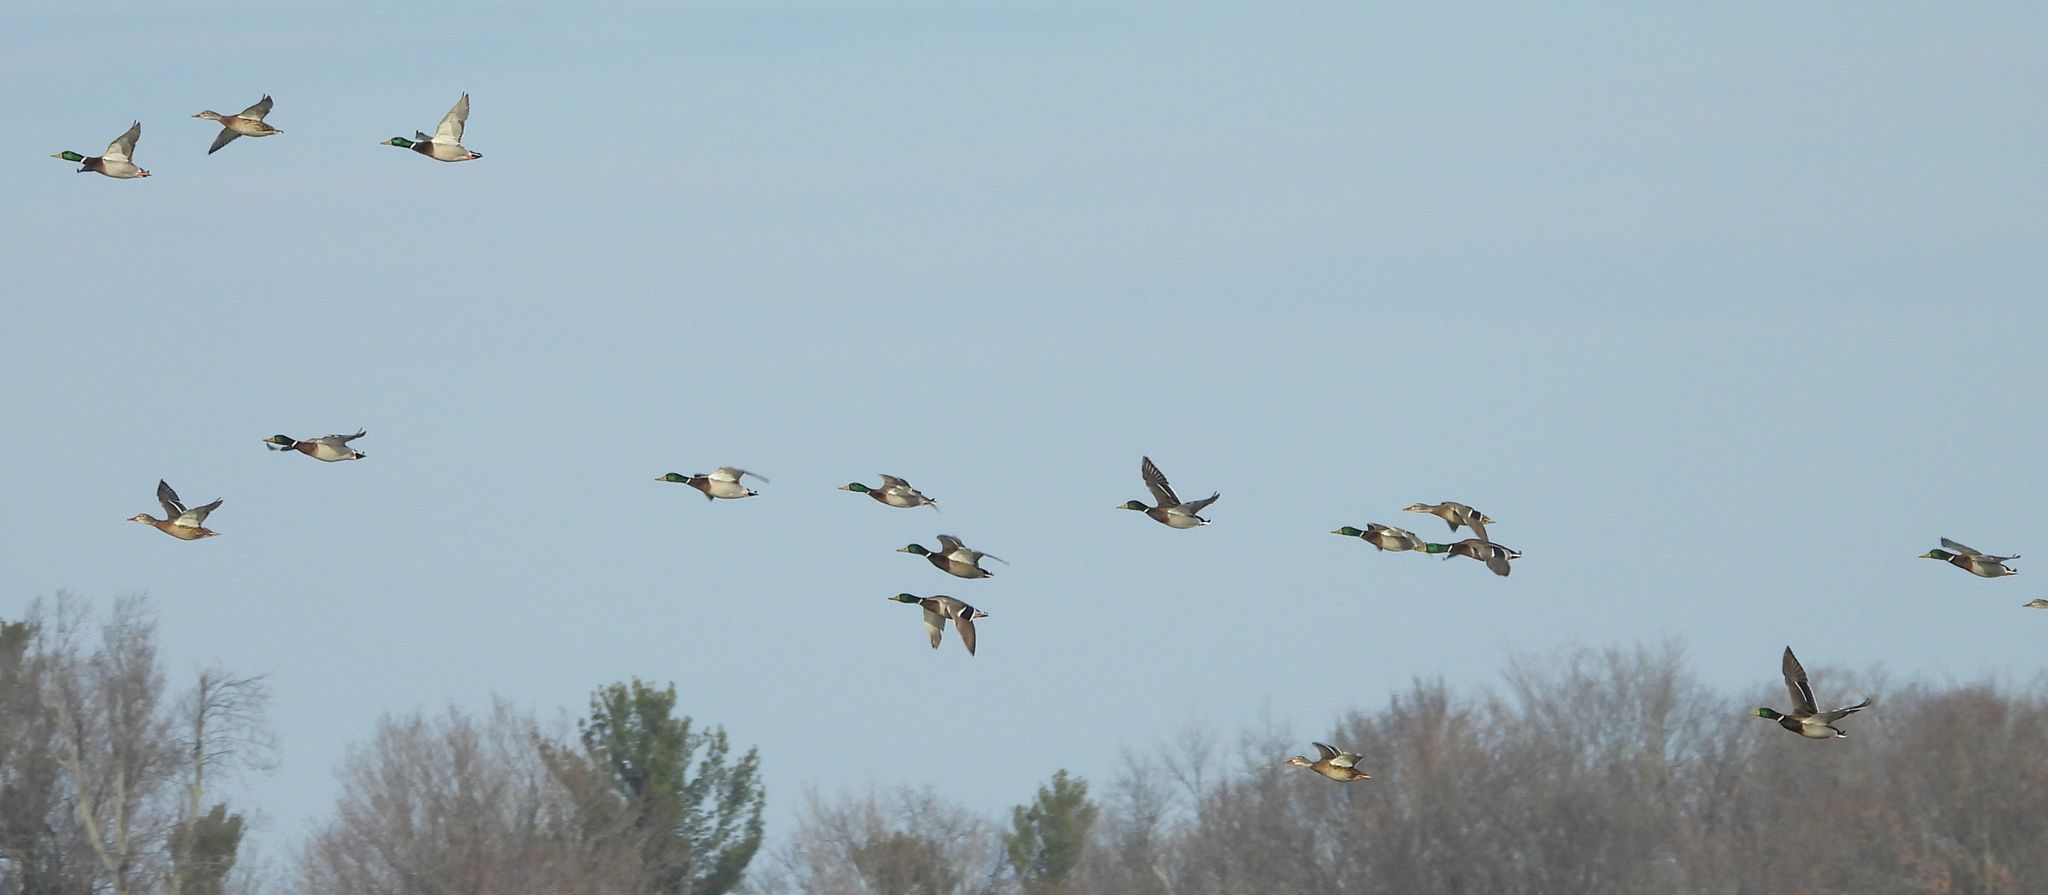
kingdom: Animalia
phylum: Chordata
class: Aves
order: Anseriformes
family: Anatidae
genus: Anas
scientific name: Anas platyrhynchos
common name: Mallard
